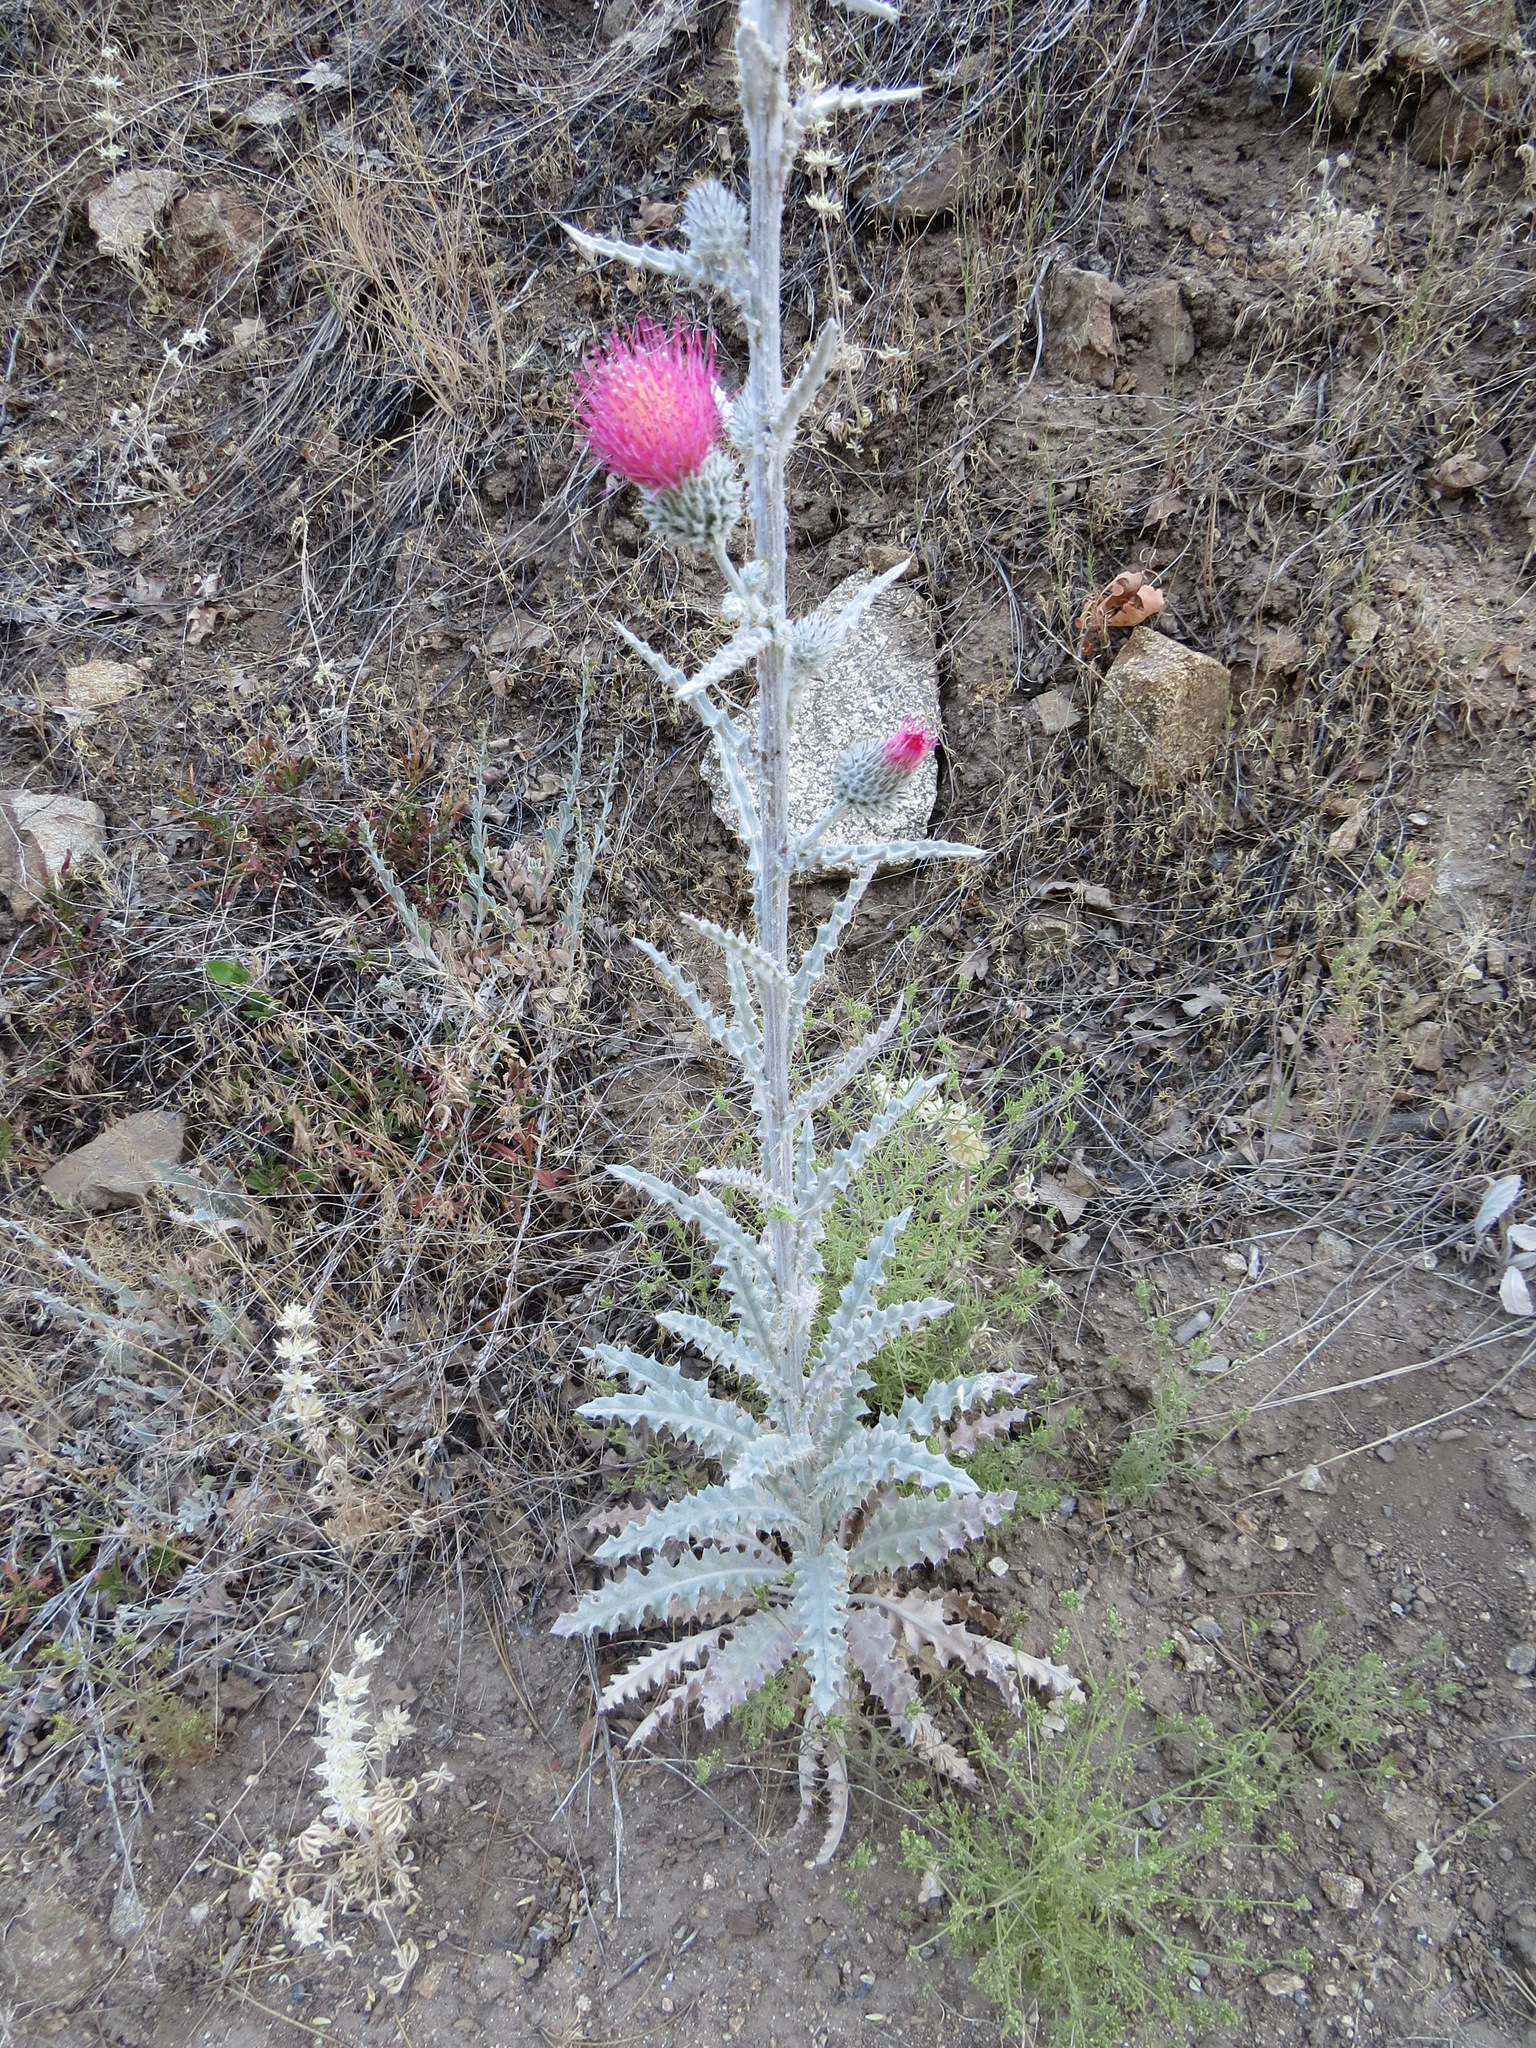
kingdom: Plantae
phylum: Tracheophyta
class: Magnoliopsida
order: Asterales
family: Asteraceae
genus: Cirsium
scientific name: Cirsium occidentale
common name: Western thistle
